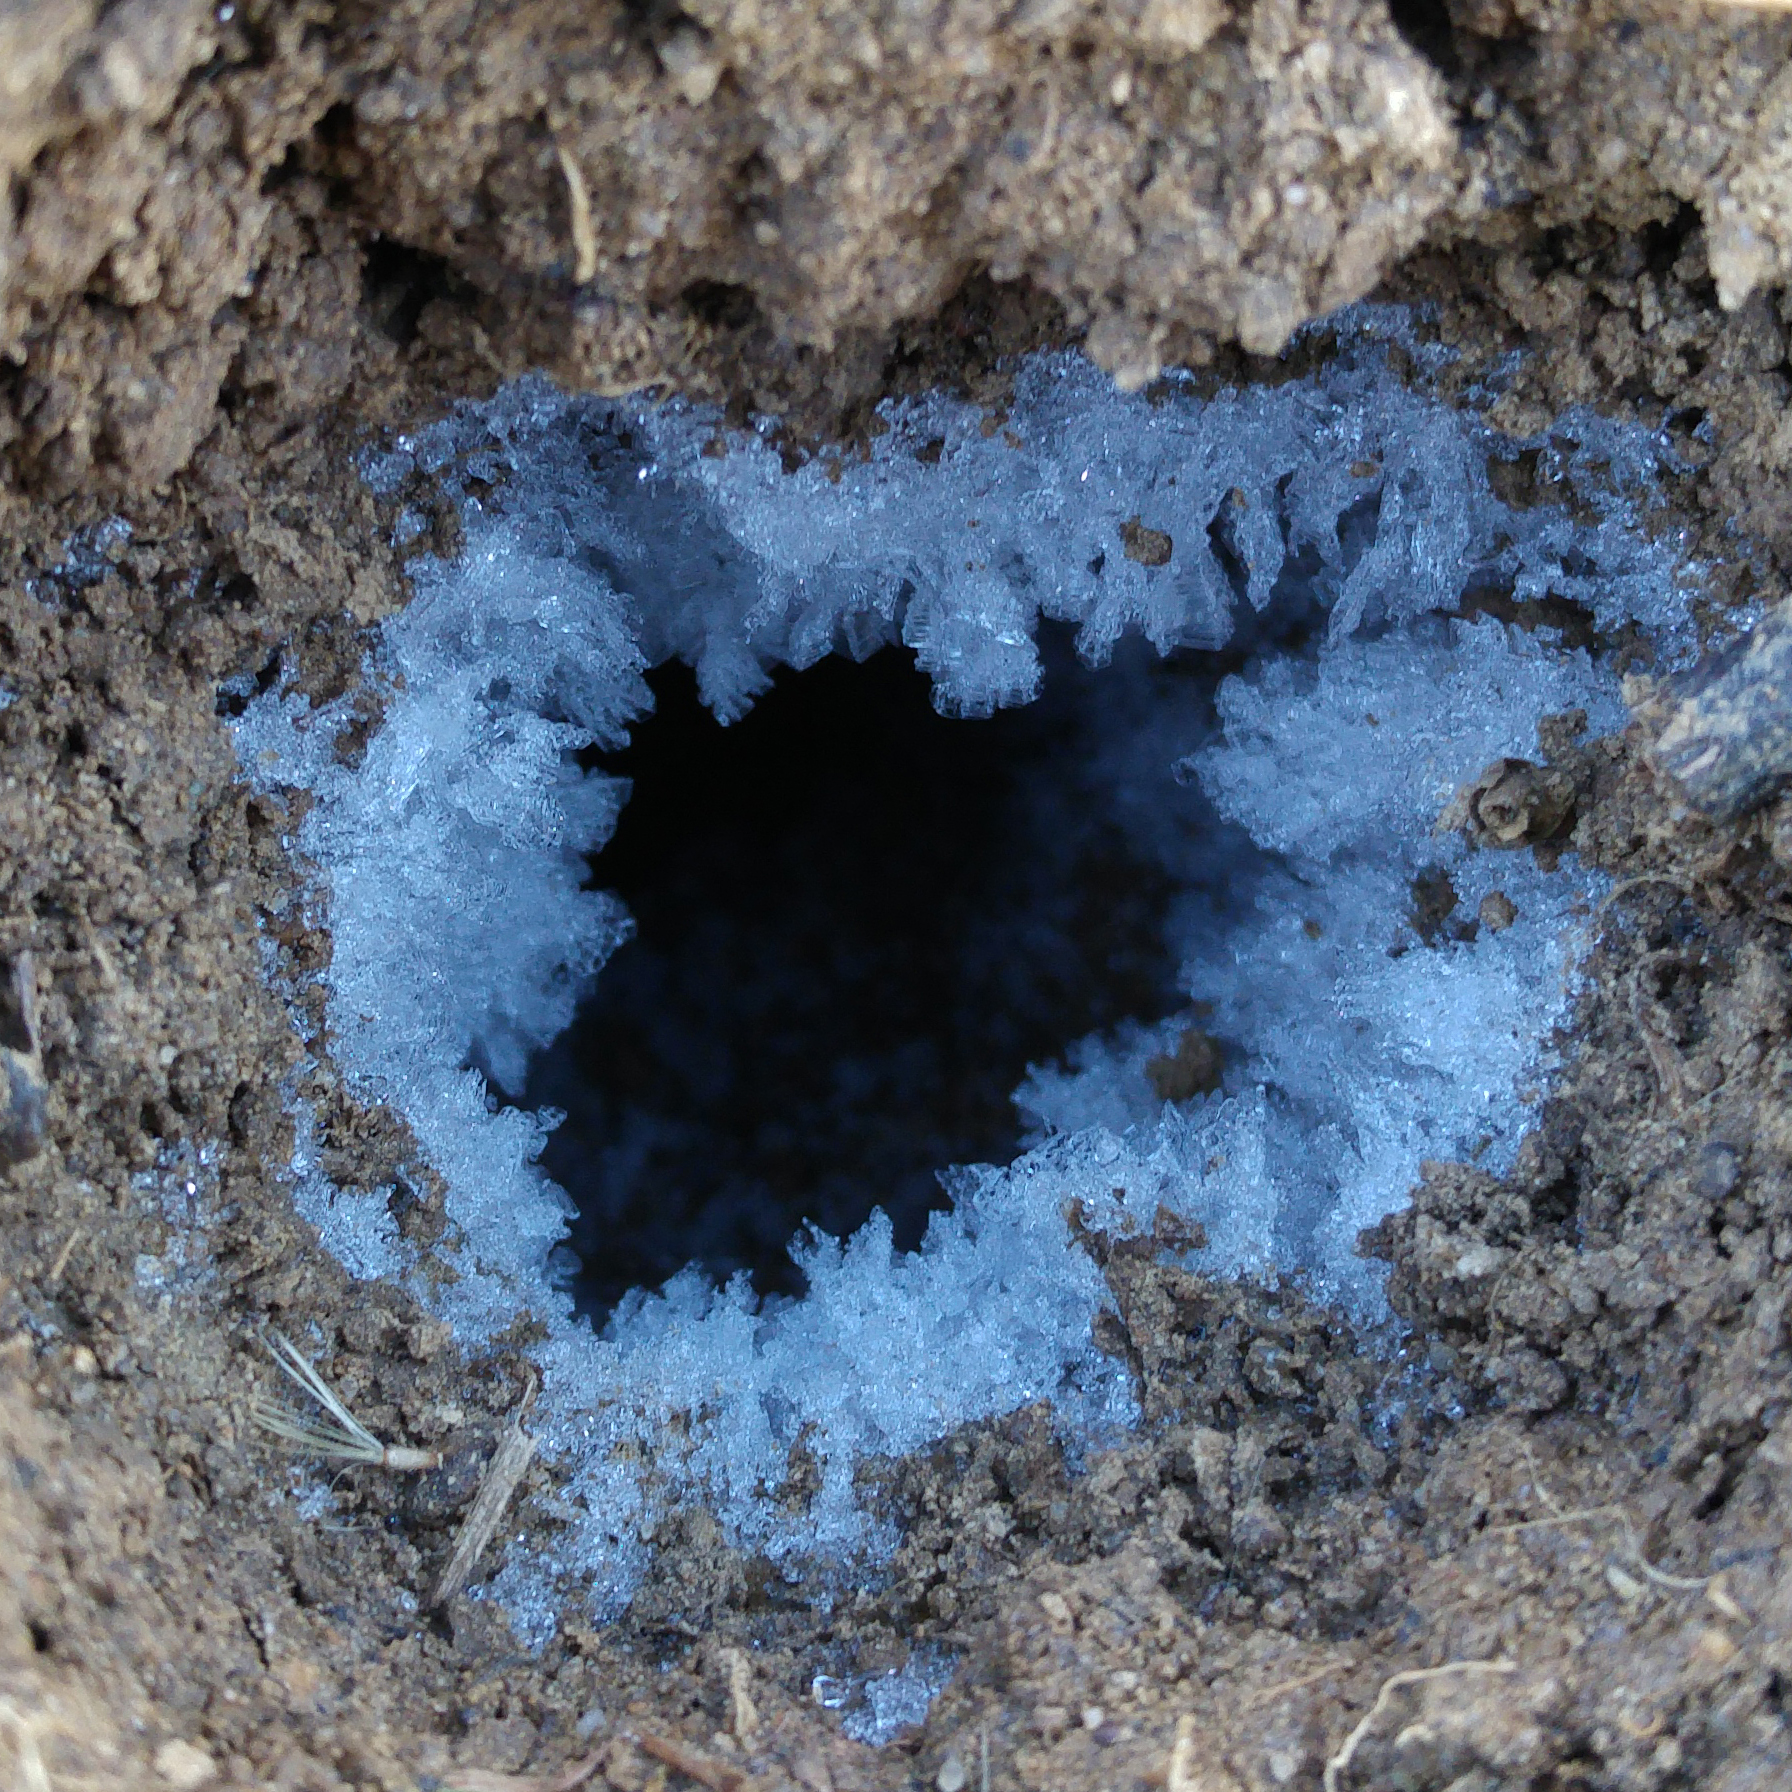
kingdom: Animalia
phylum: Chordata
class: Mammalia
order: Soricomorpha
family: Talpidae
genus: Talpa
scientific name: Talpa europaea
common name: European mole
